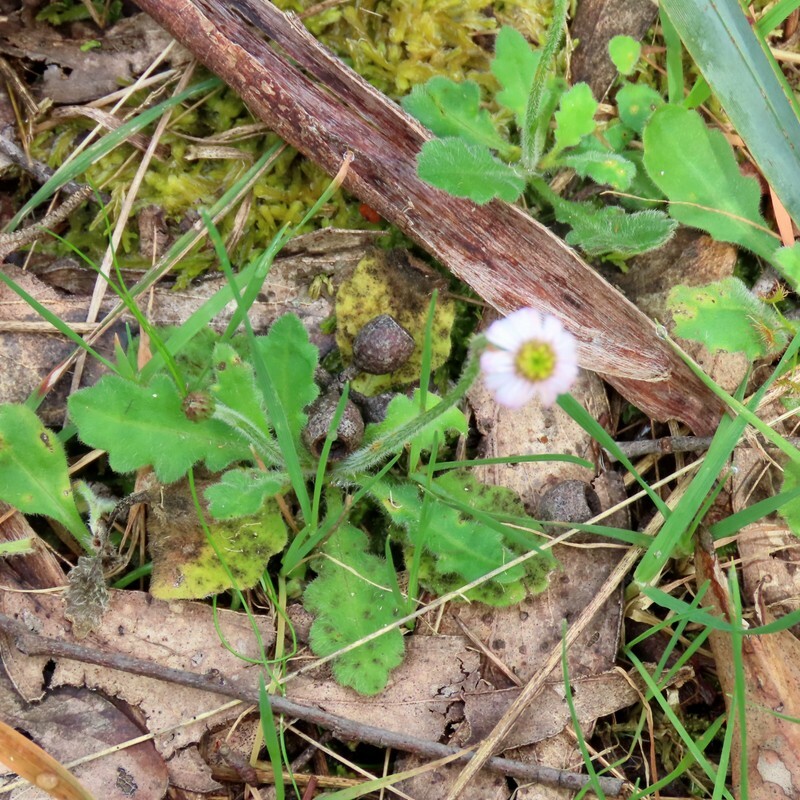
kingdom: Plantae
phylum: Tracheophyta
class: Magnoliopsida
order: Asterales
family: Asteraceae
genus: Lagenophora
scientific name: Lagenophora stipitata
